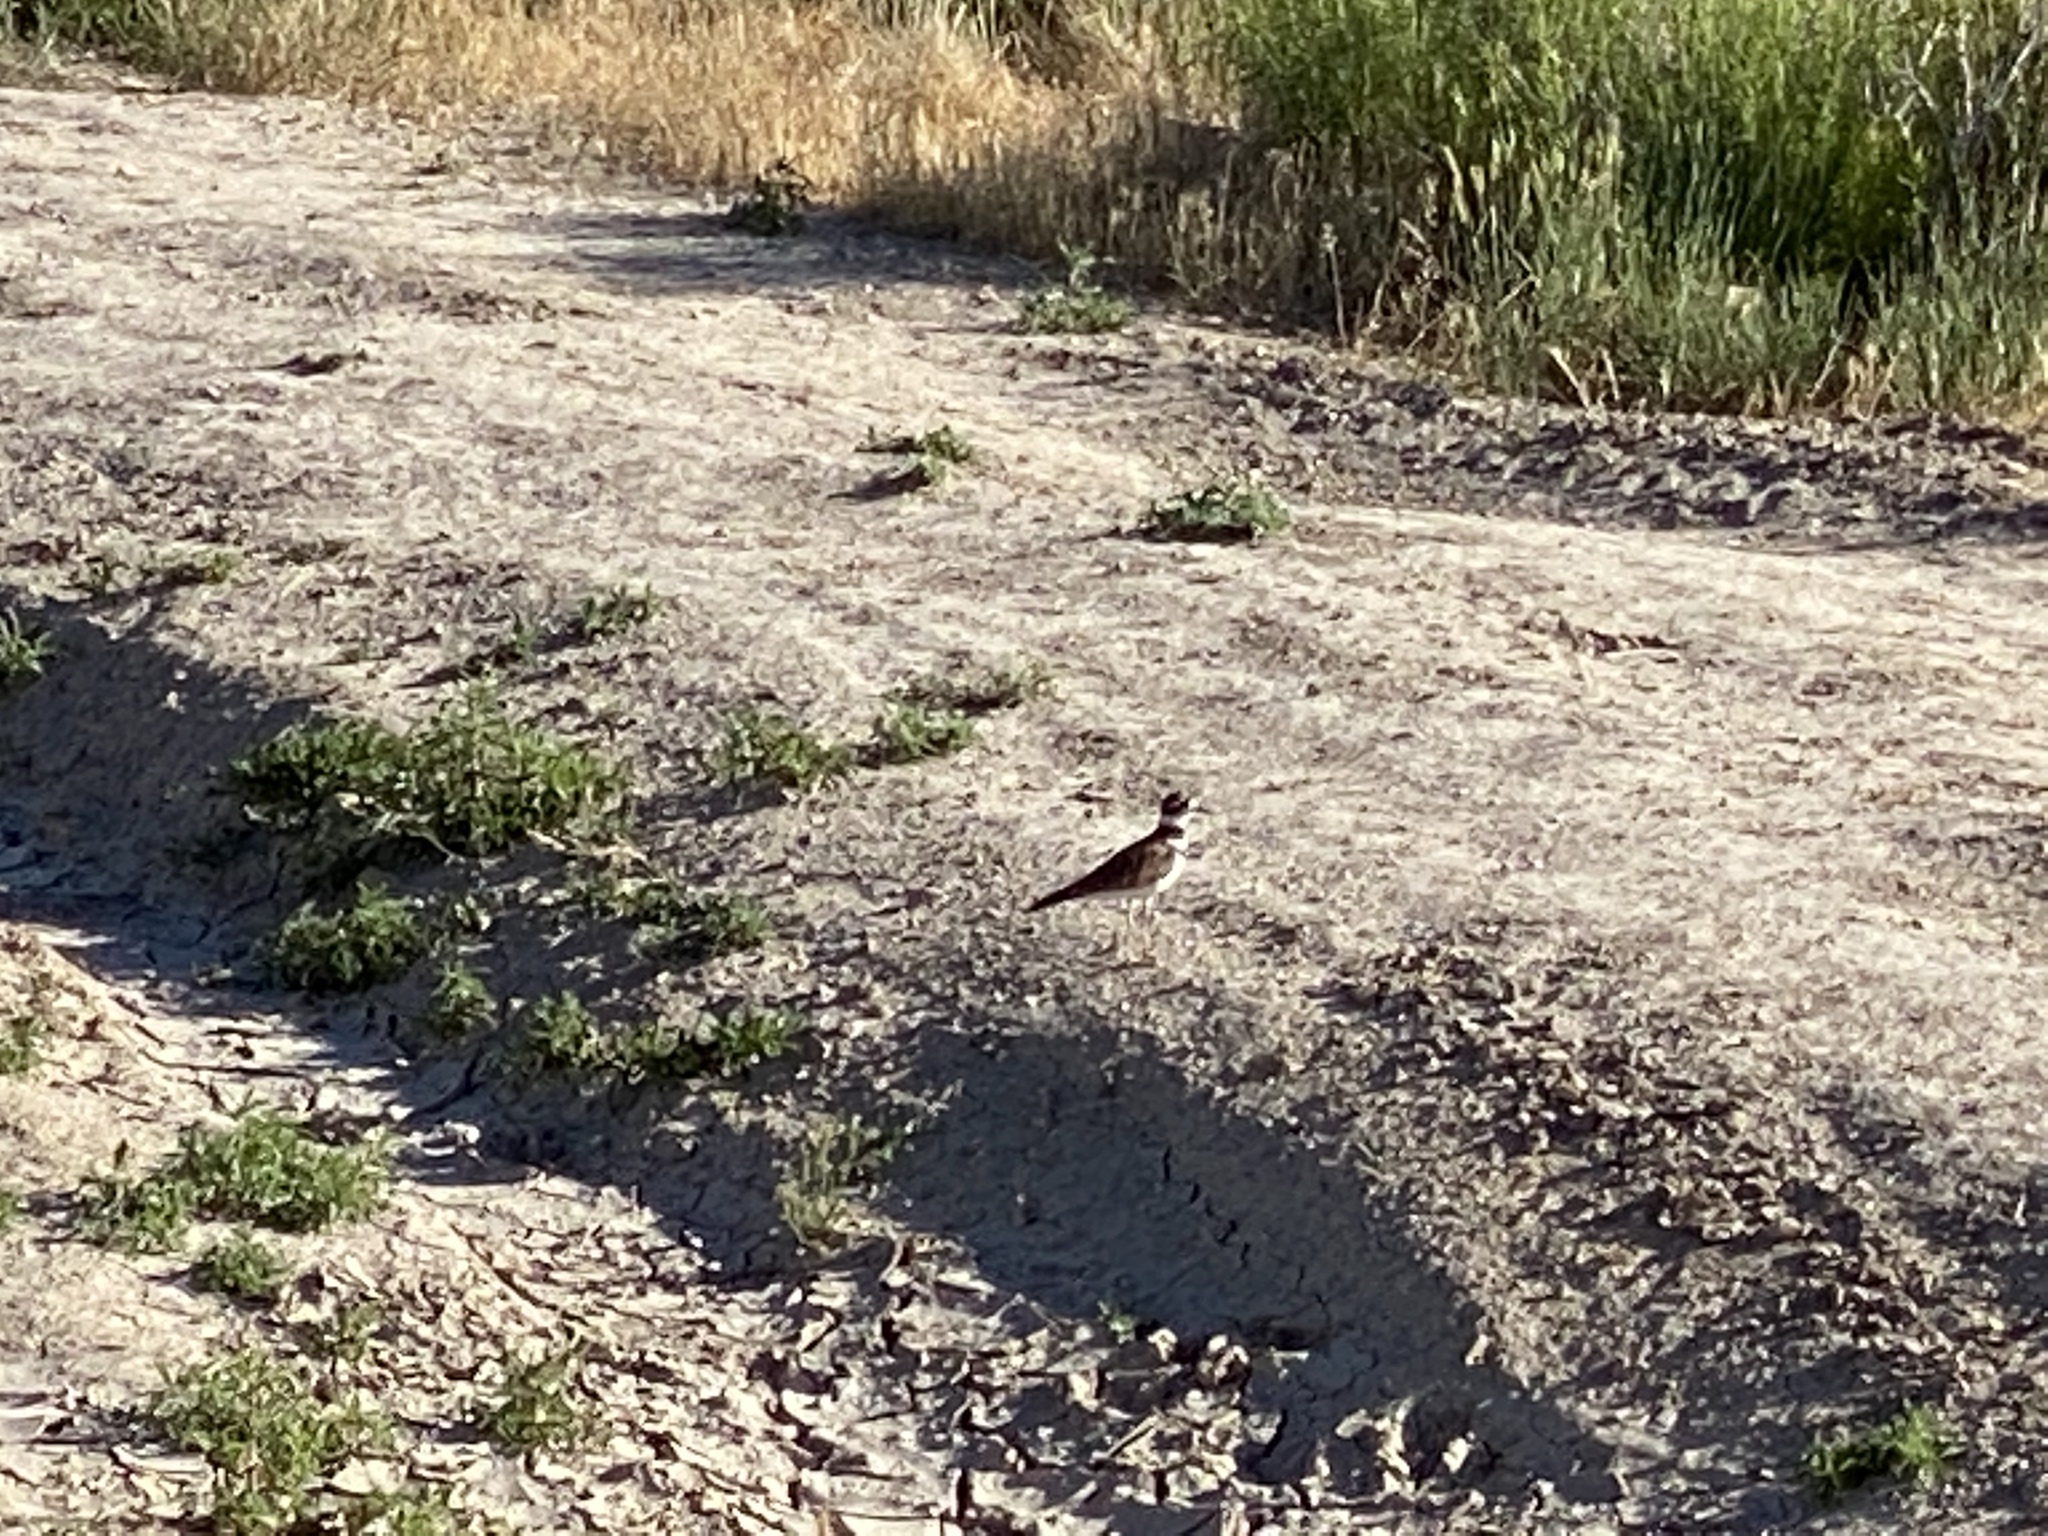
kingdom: Animalia
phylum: Chordata
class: Aves
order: Charadriiformes
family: Charadriidae
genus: Charadrius
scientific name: Charadrius vociferus
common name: Killdeer
